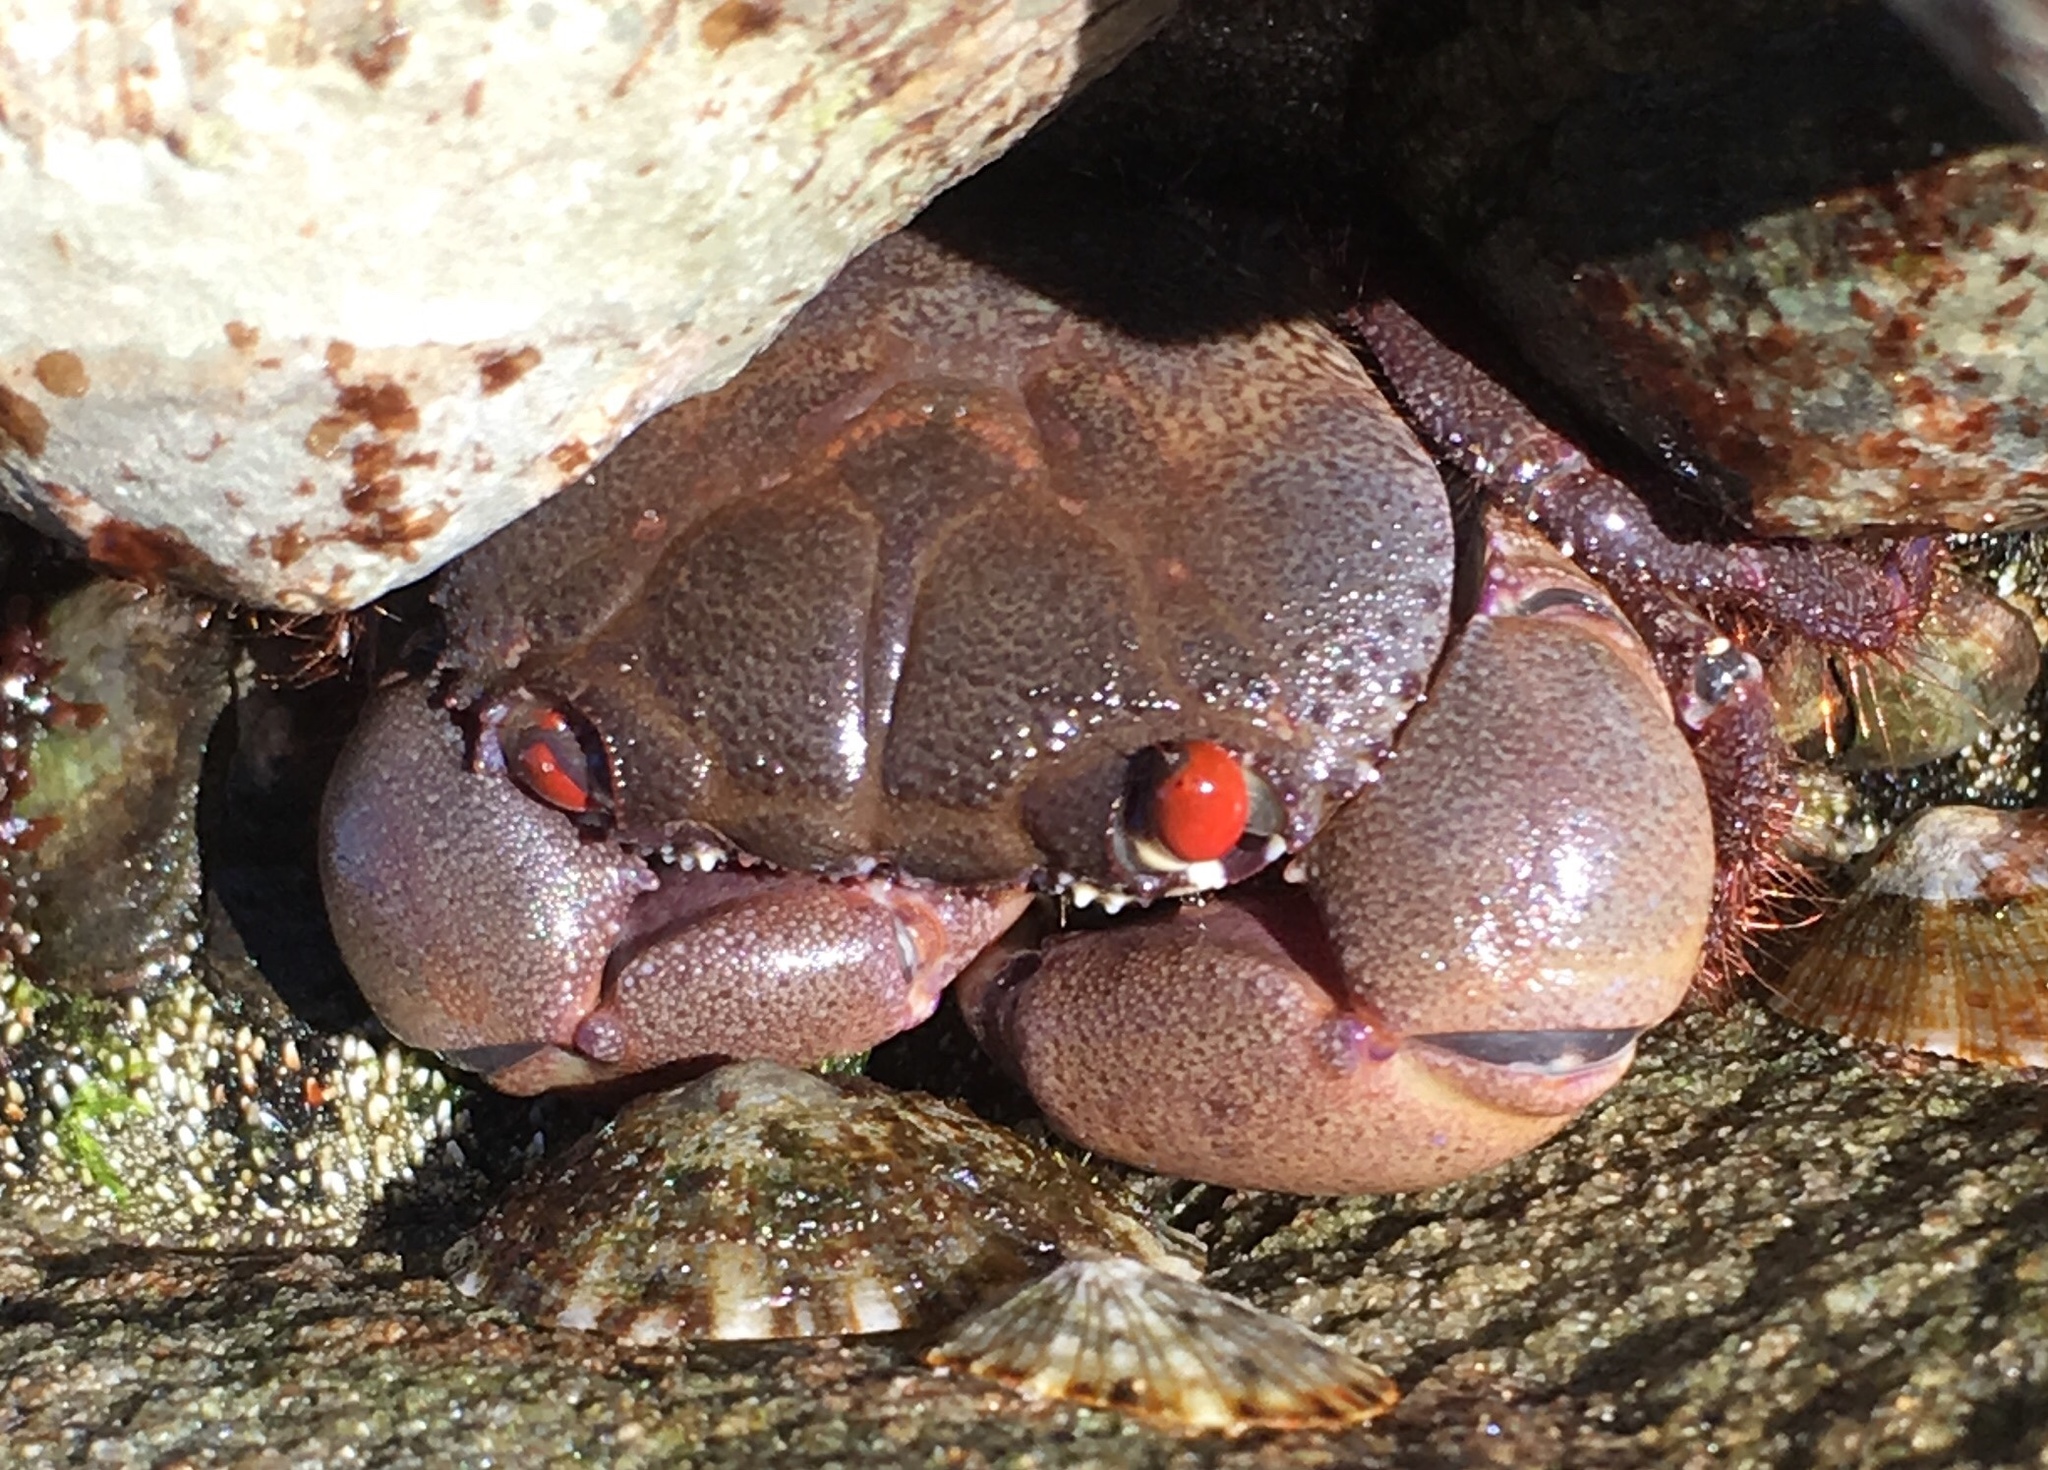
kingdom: Animalia
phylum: Arthropoda
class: Malacostraca
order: Decapoda
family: Eriphiidae
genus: Eriphia
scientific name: Eriphia sebana
